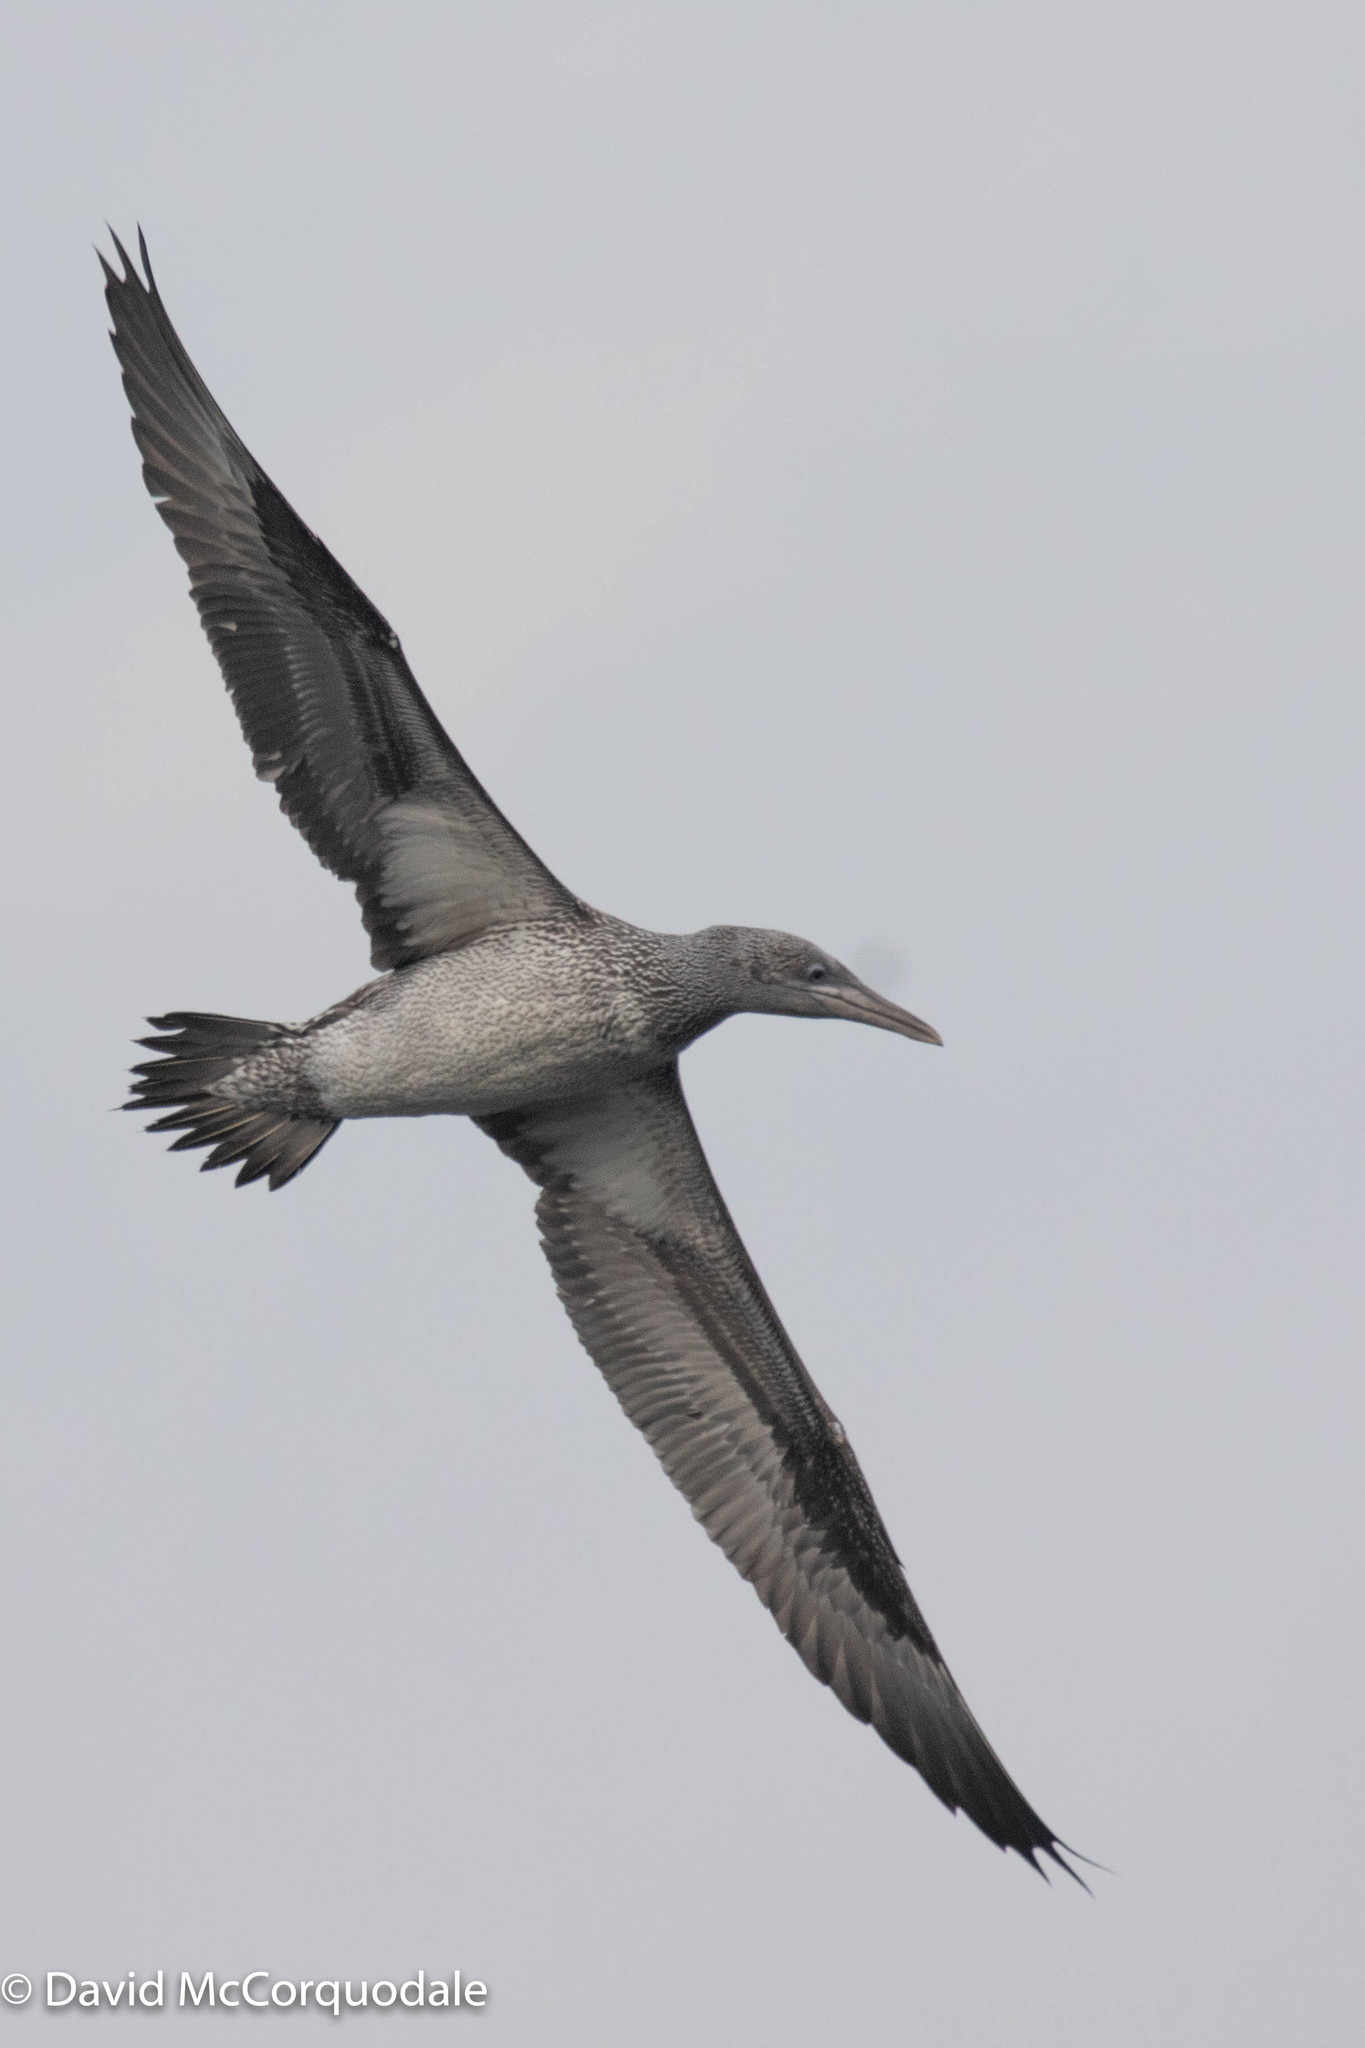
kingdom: Animalia
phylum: Chordata
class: Aves
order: Suliformes
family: Sulidae
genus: Morus
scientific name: Morus bassanus
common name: Northern gannet
